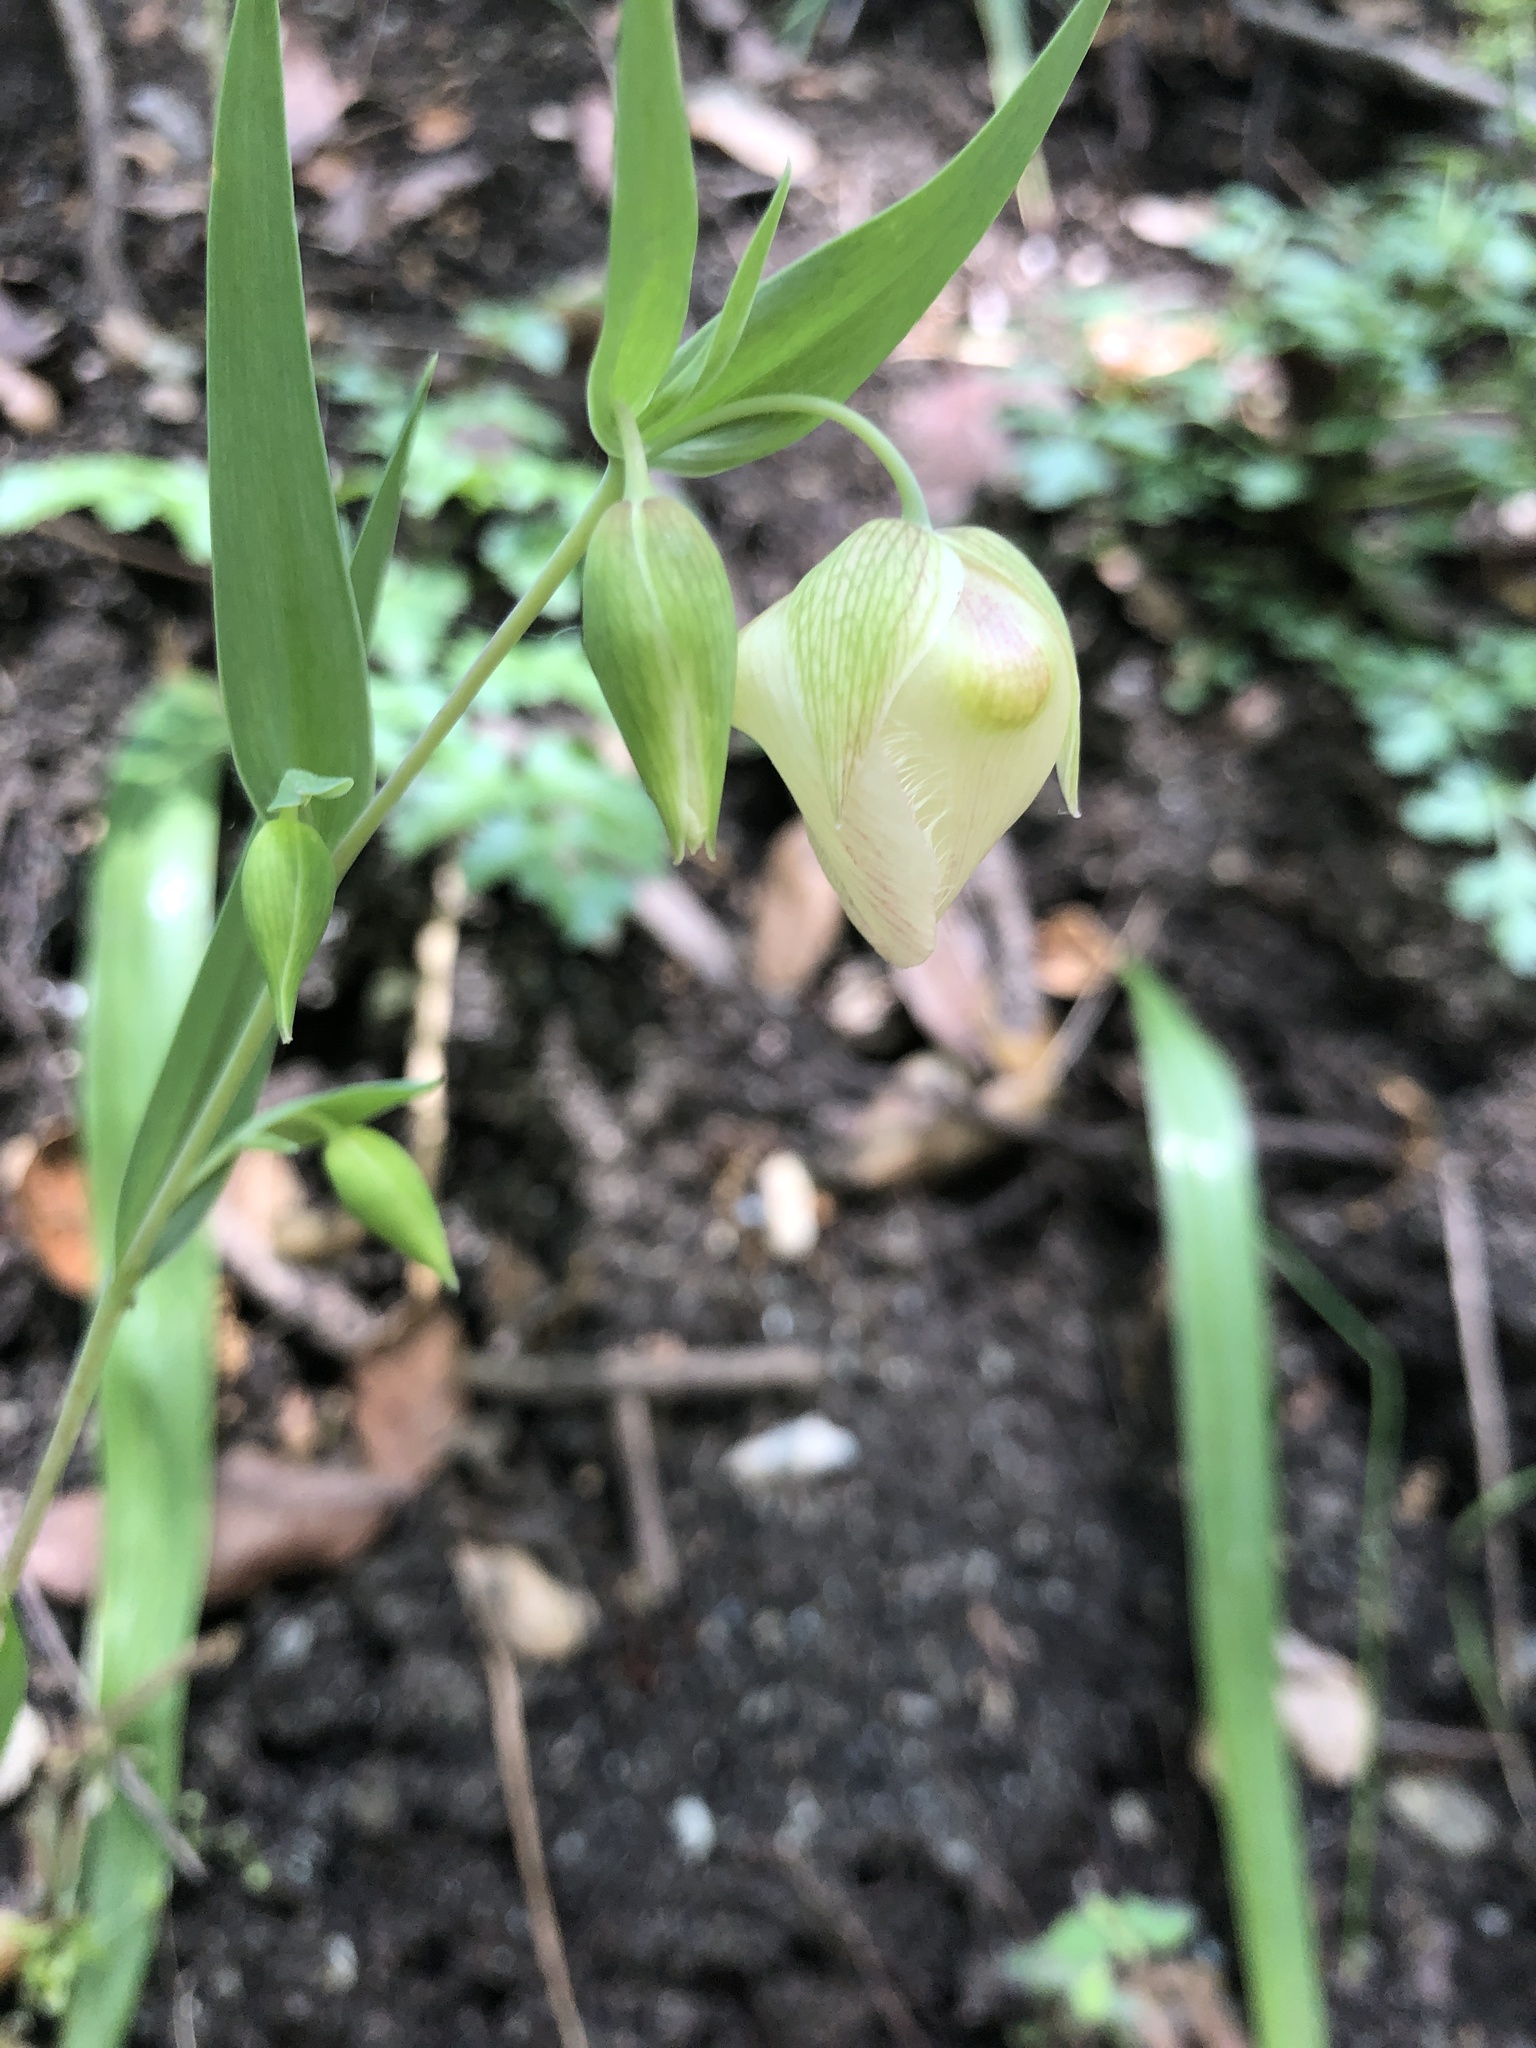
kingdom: Plantae
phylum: Tracheophyta
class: Liliopsida
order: Liliales
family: Liliaceae
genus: Calochortus
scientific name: Calochortus albus
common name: Fairy-lantern
